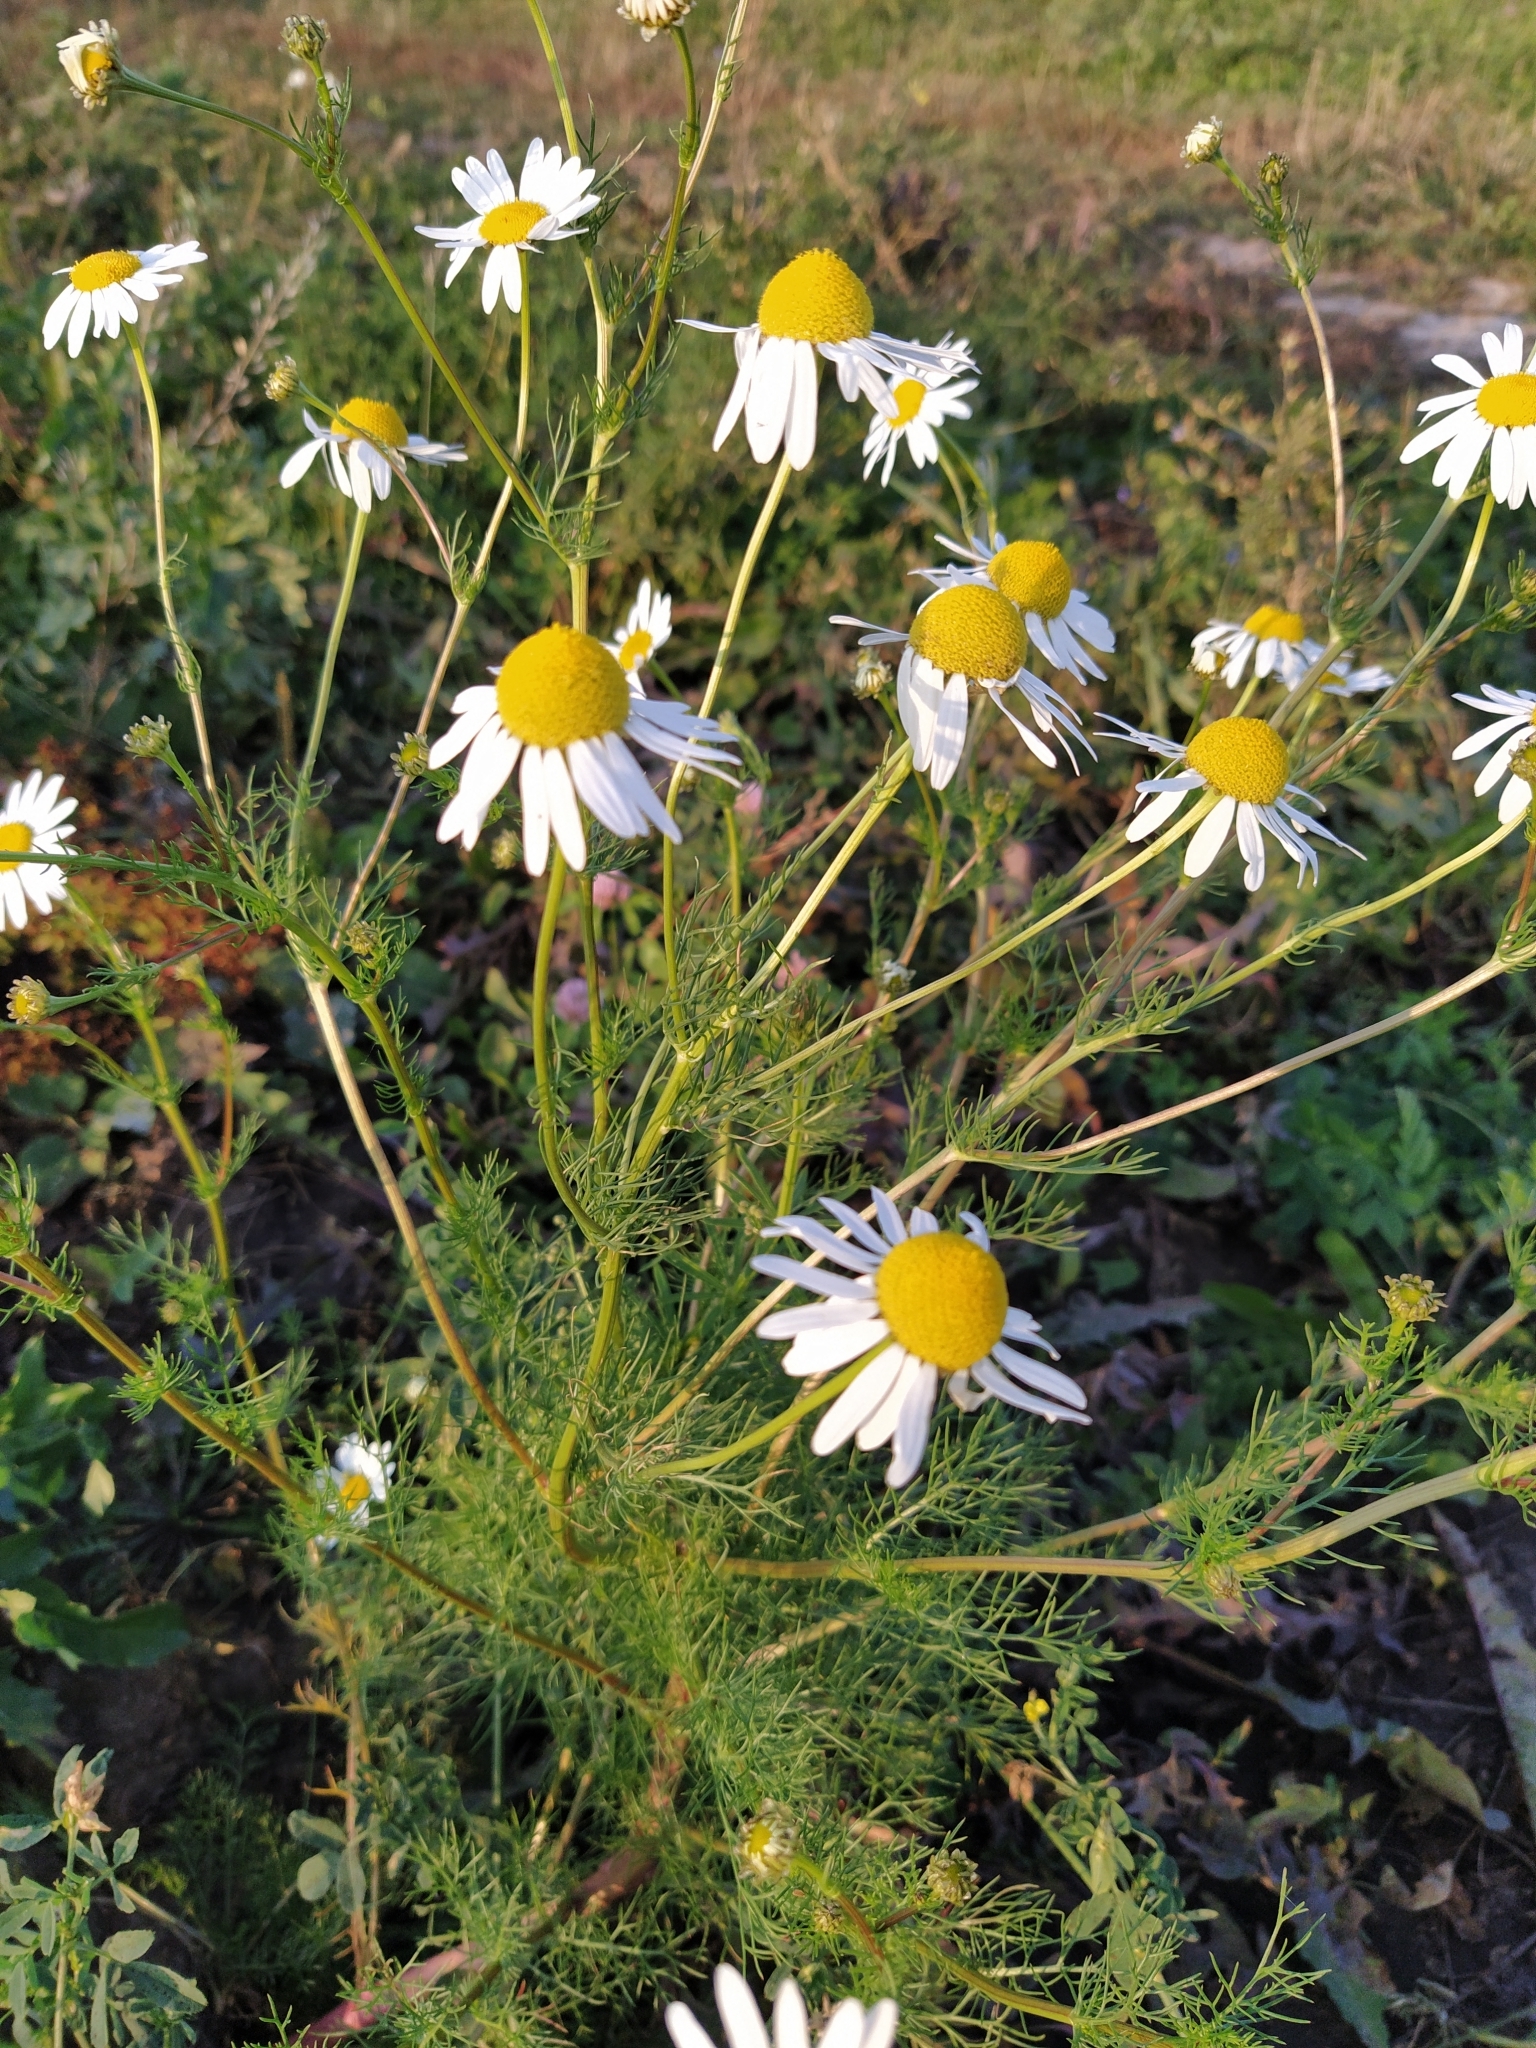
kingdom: Plantae
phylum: Tracheophyta
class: Magnoliopsida
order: Asterales
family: Asteraceae
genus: Tripleurospermum
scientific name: Tripleurospermum inodorum
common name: Scentless mayweed
